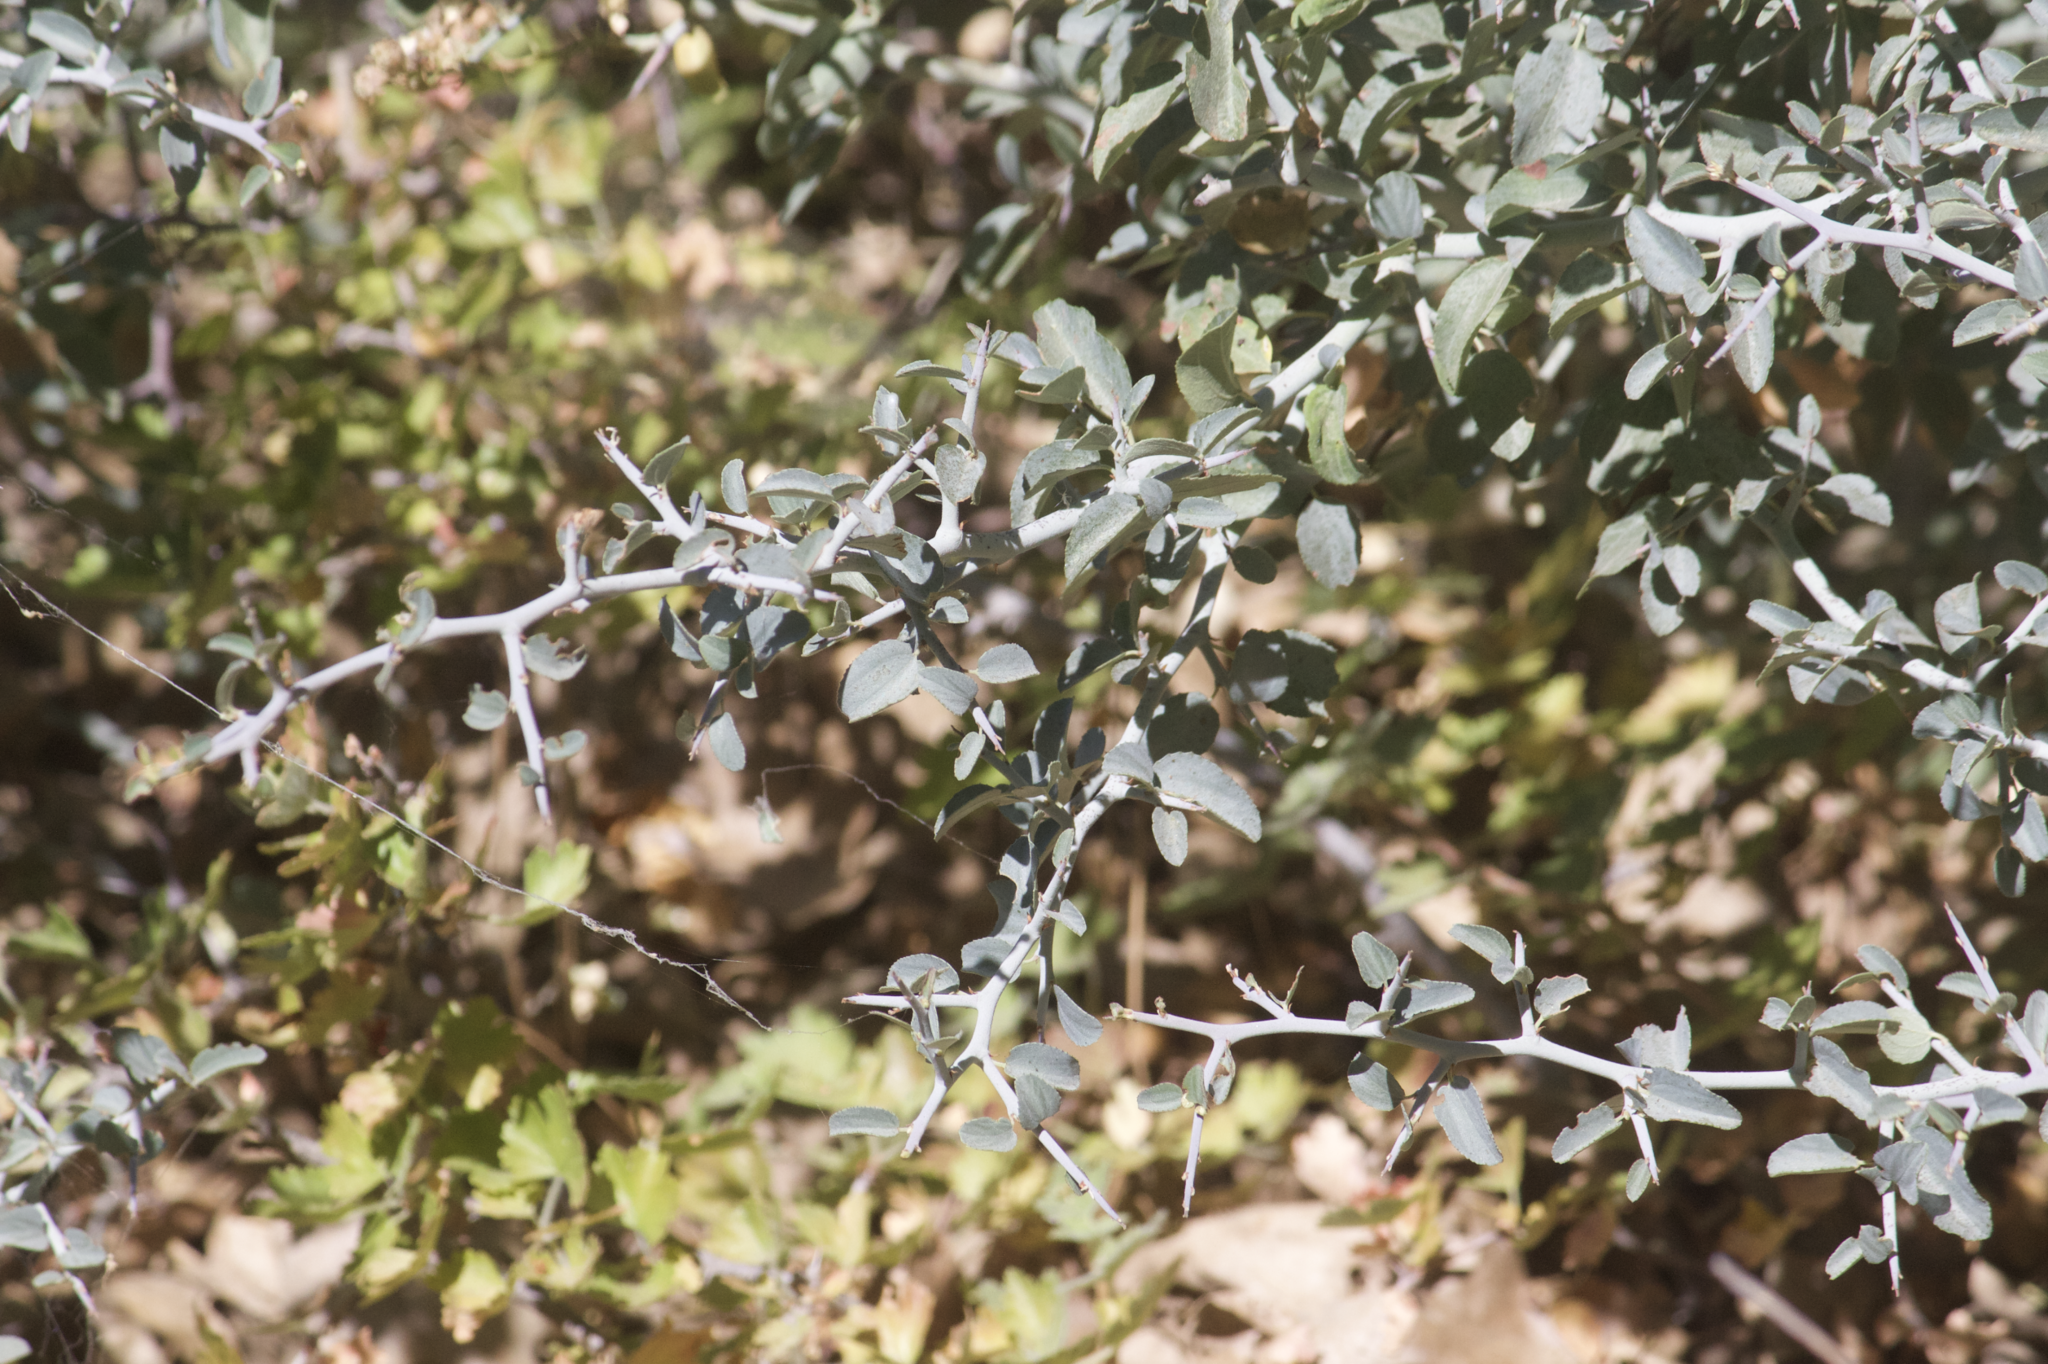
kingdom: Plantae
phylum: Tracheophyta
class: Magnoliopsida
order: Rosales
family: Rhamnaceae
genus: Ceanothus
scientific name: Ceanothus cordulatus
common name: Mountain whitethorn
